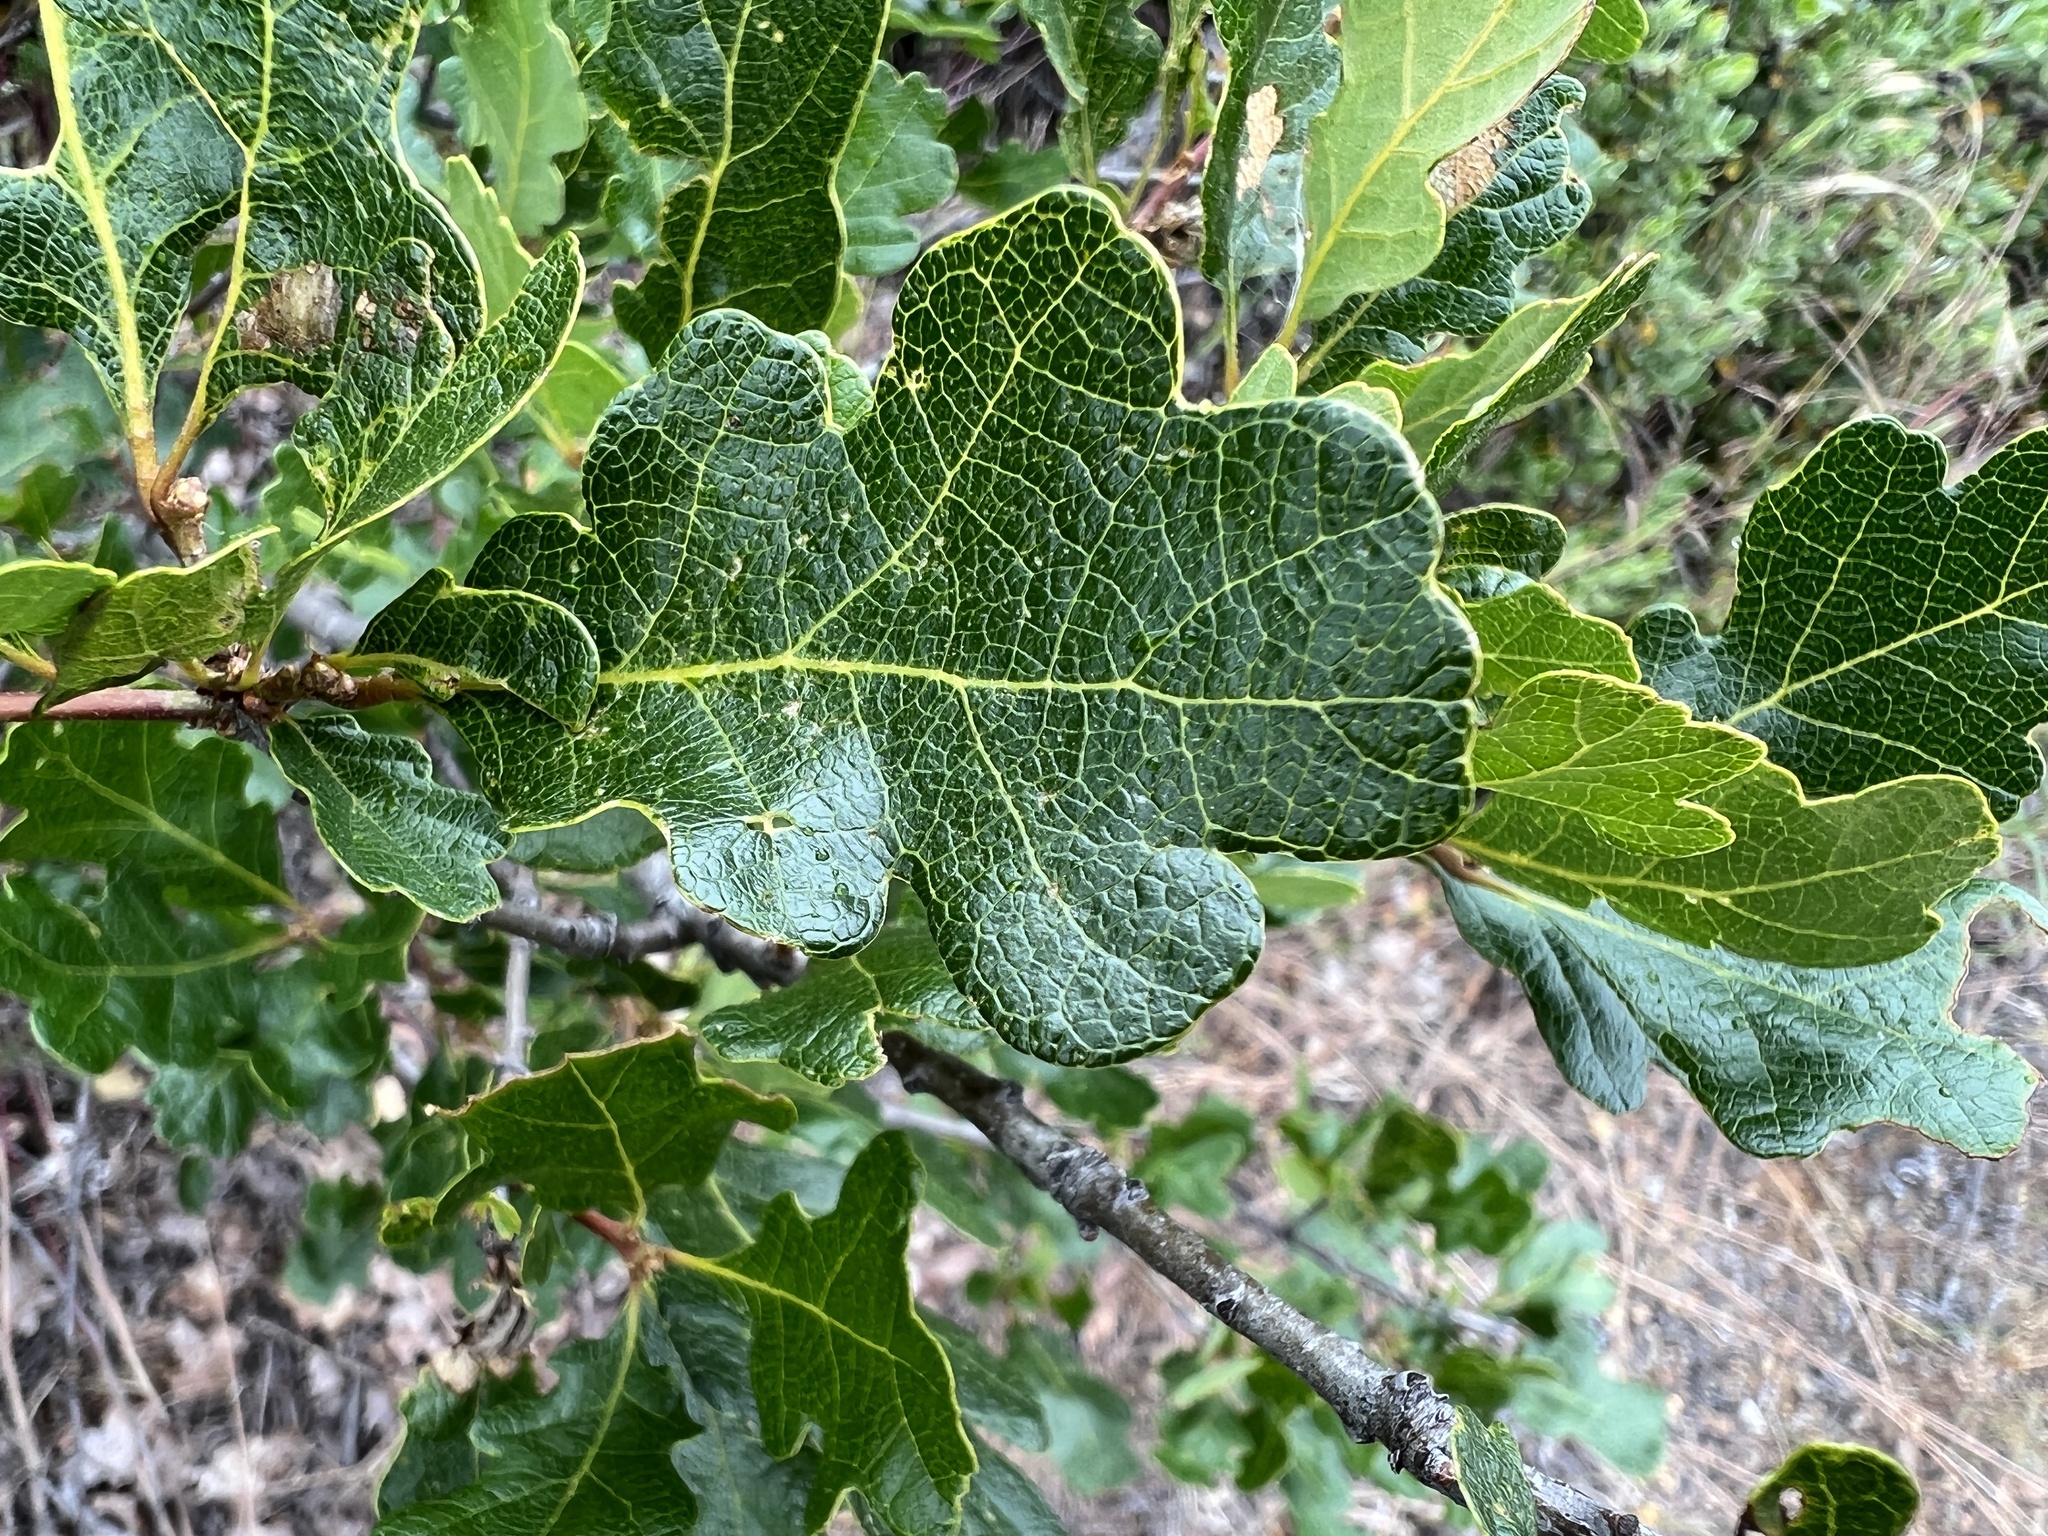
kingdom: Plantae
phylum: Tracheophyta
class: Magnoliopsida
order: Fagales
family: Fagaceae
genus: Quercus
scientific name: Quercus garryana
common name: Garry oak
